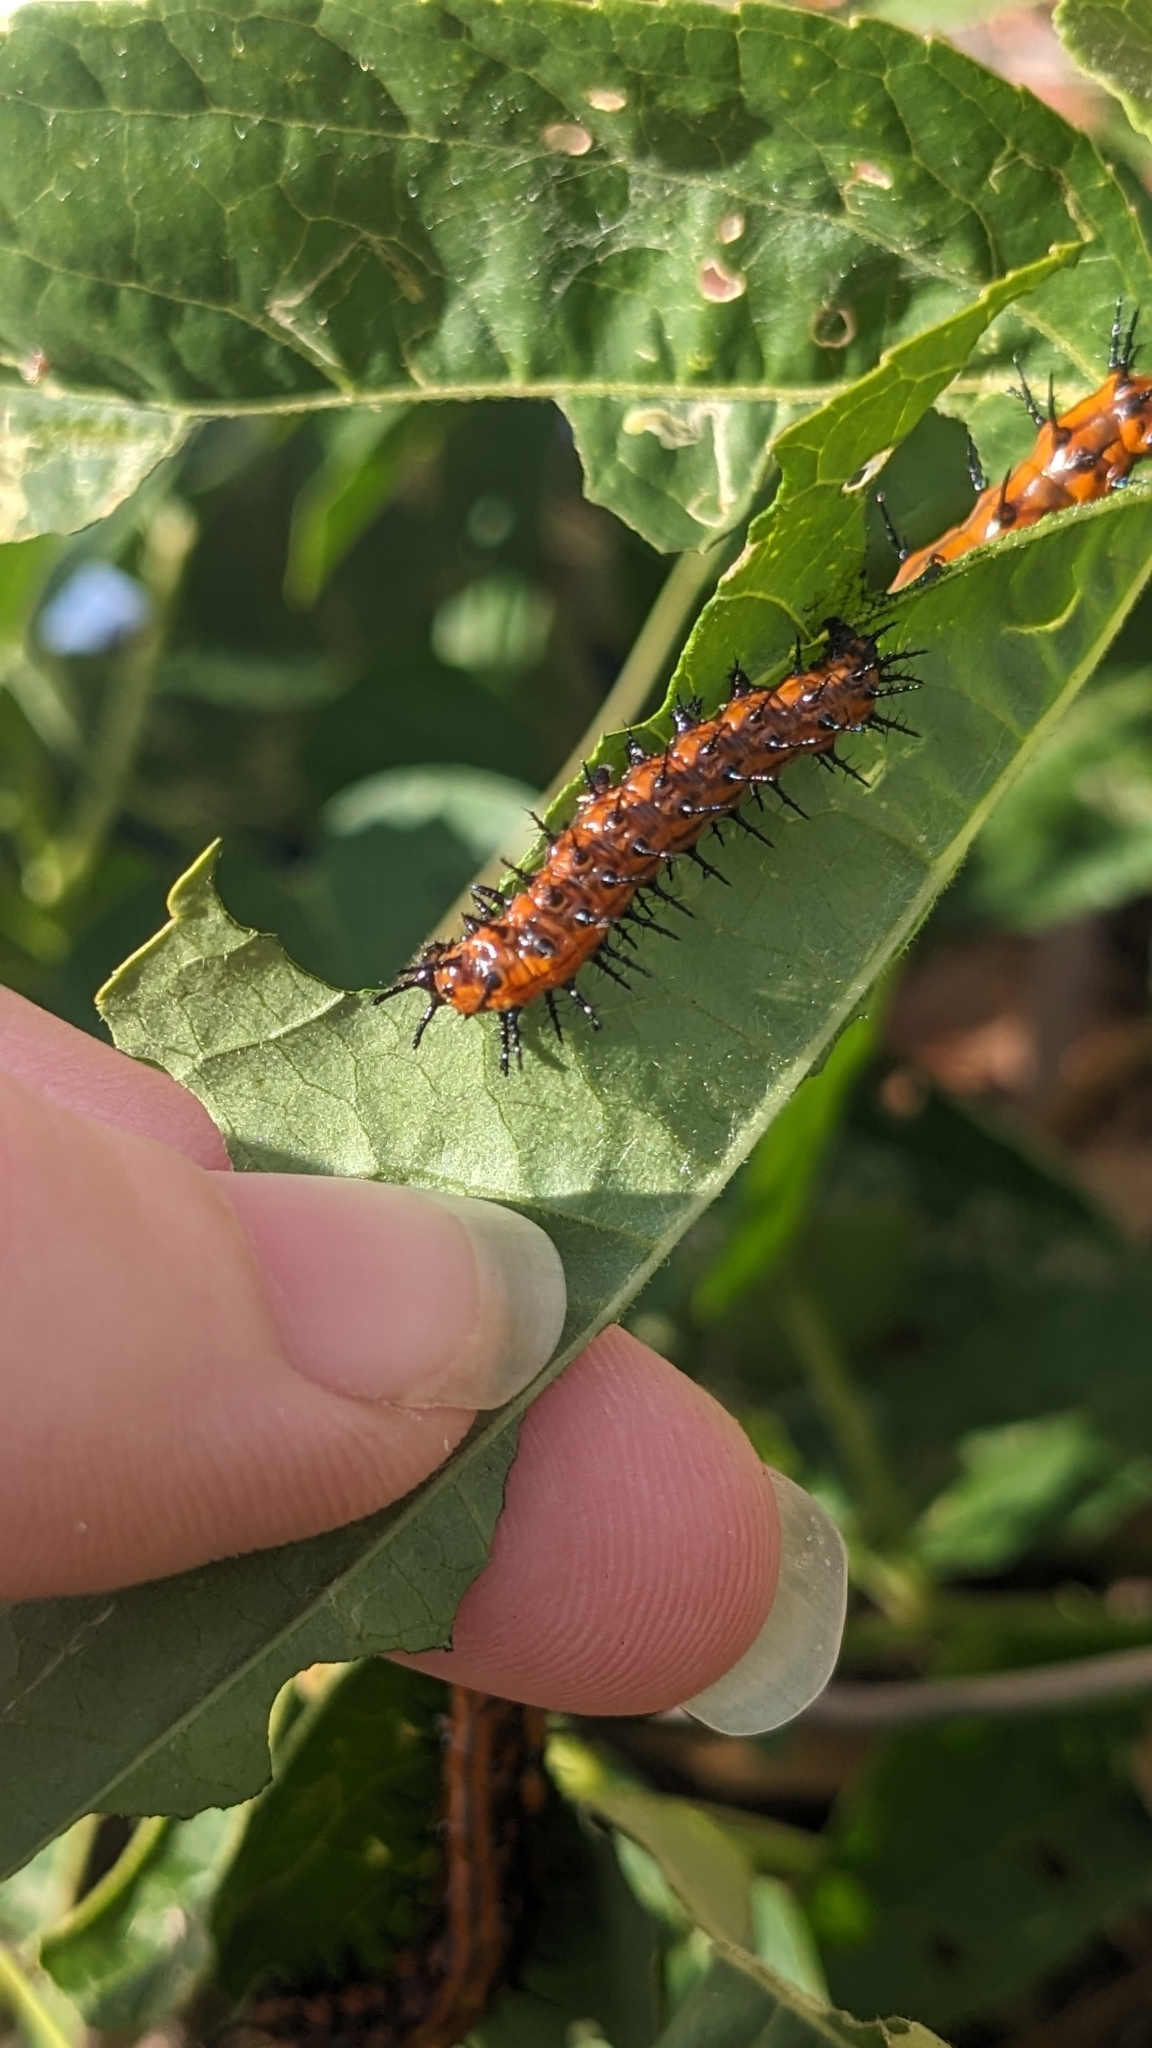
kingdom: Animalia
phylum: Arthropoda
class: Insecta
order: Lepidoptera
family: Nymphalidae
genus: Dione
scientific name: Dione vanillae
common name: Gulf fritillary
